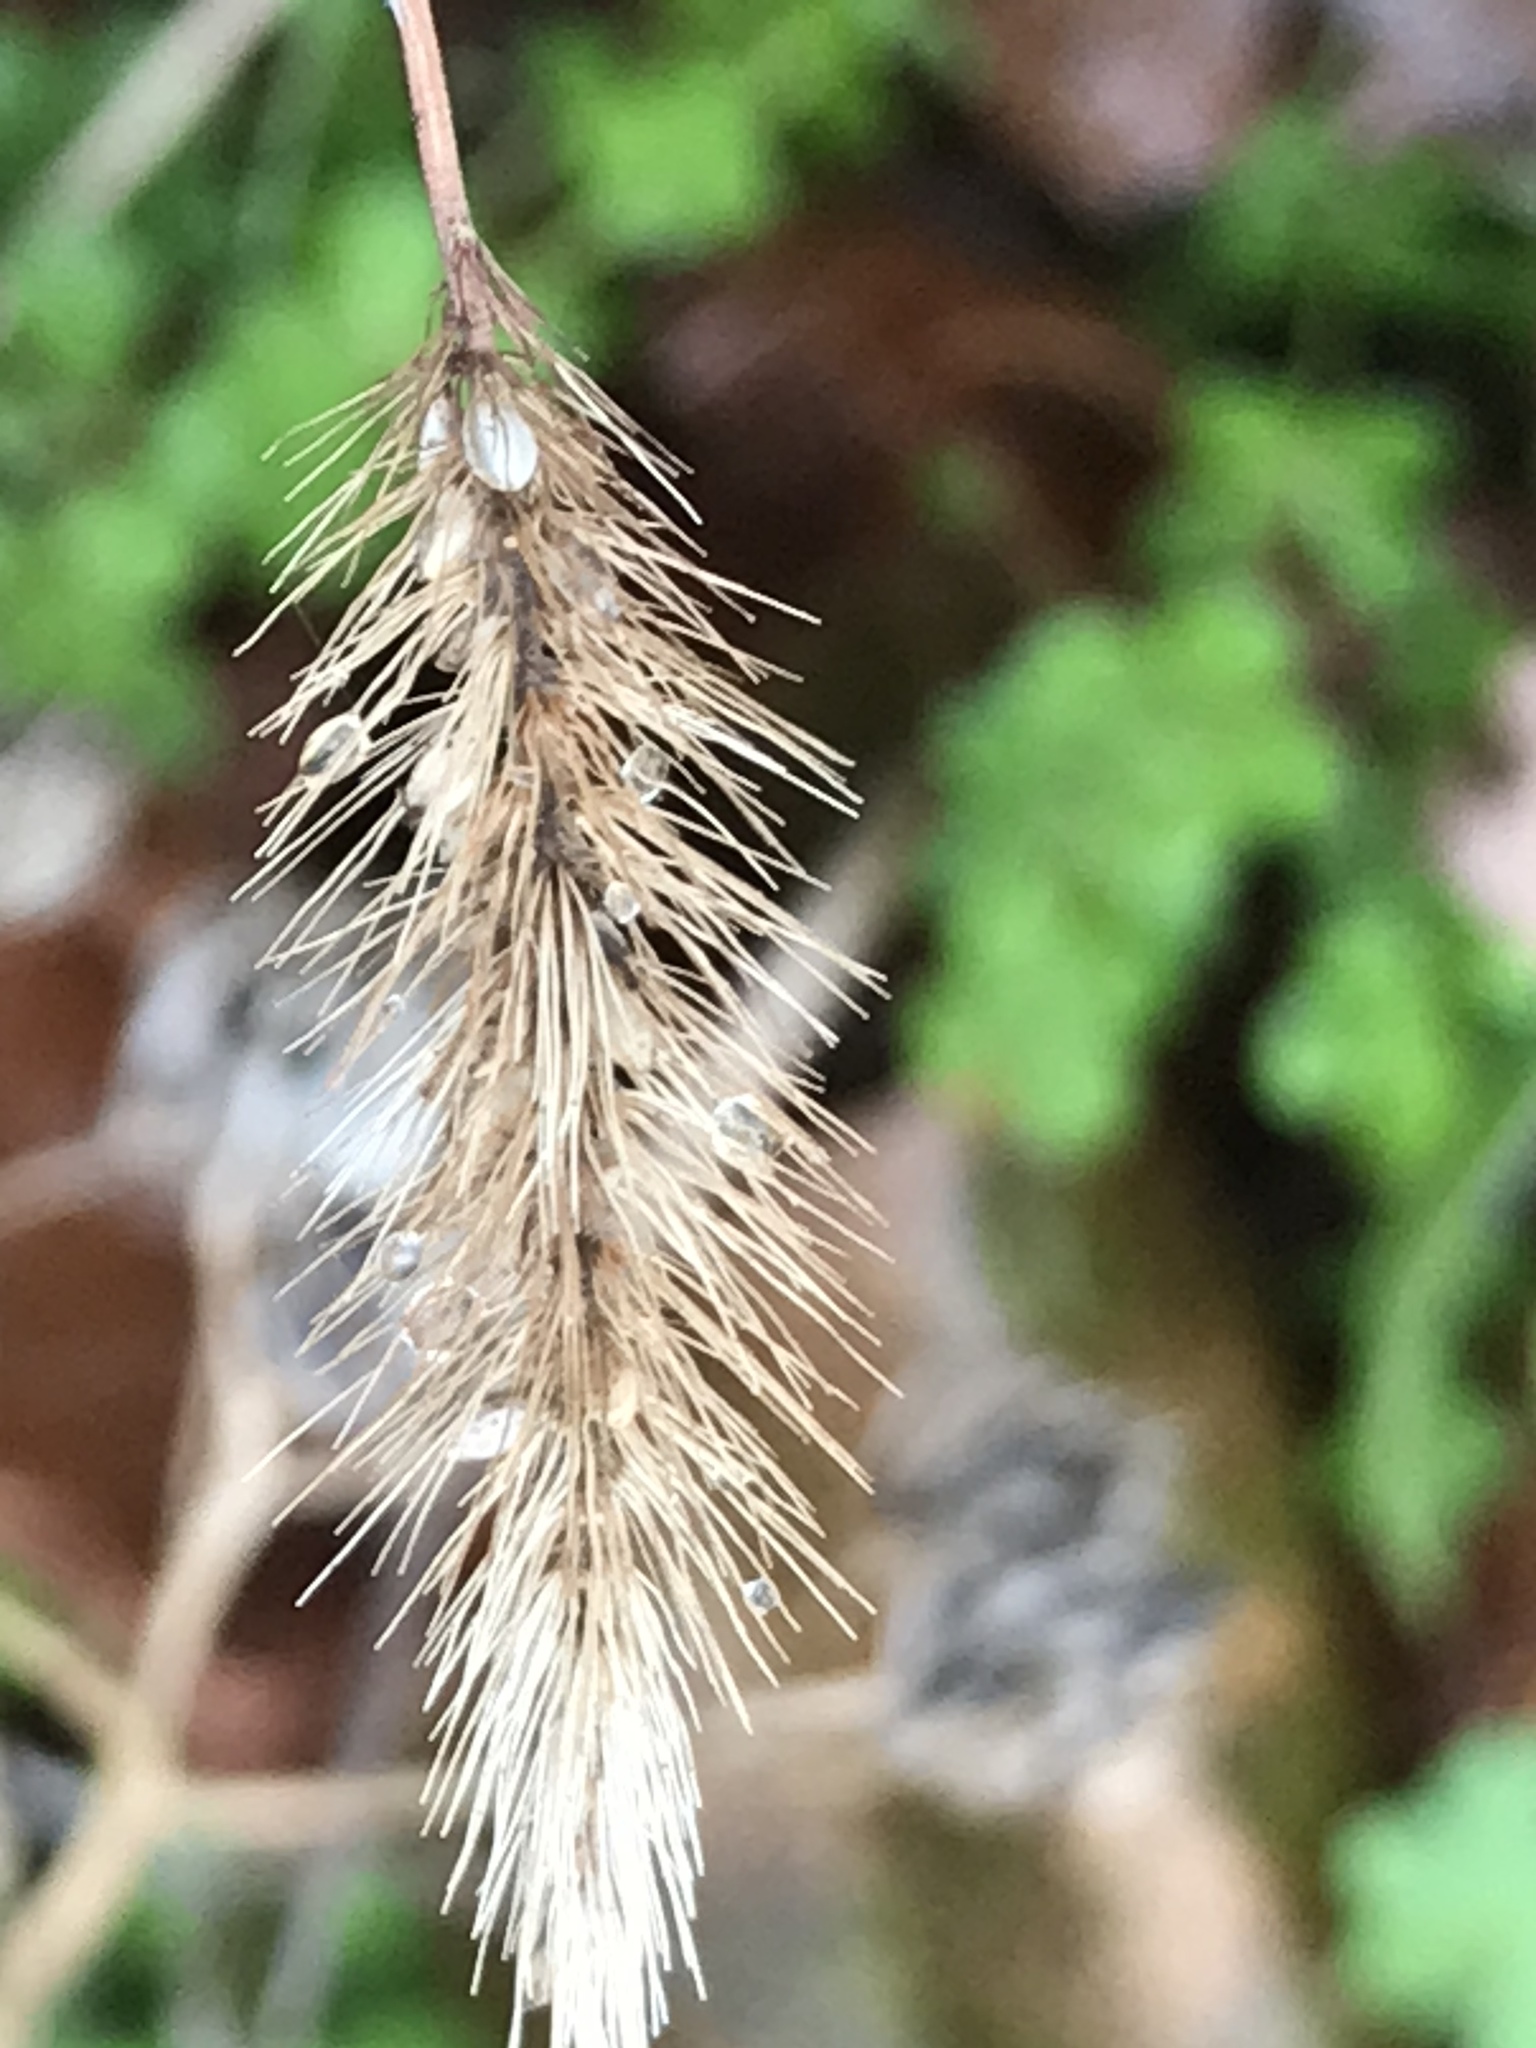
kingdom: Plantae
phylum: Tracheophyta
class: Liliopsida
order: Poales
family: Poaceae
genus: Setaria
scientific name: Setaria viridis
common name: Green bristlegrass
